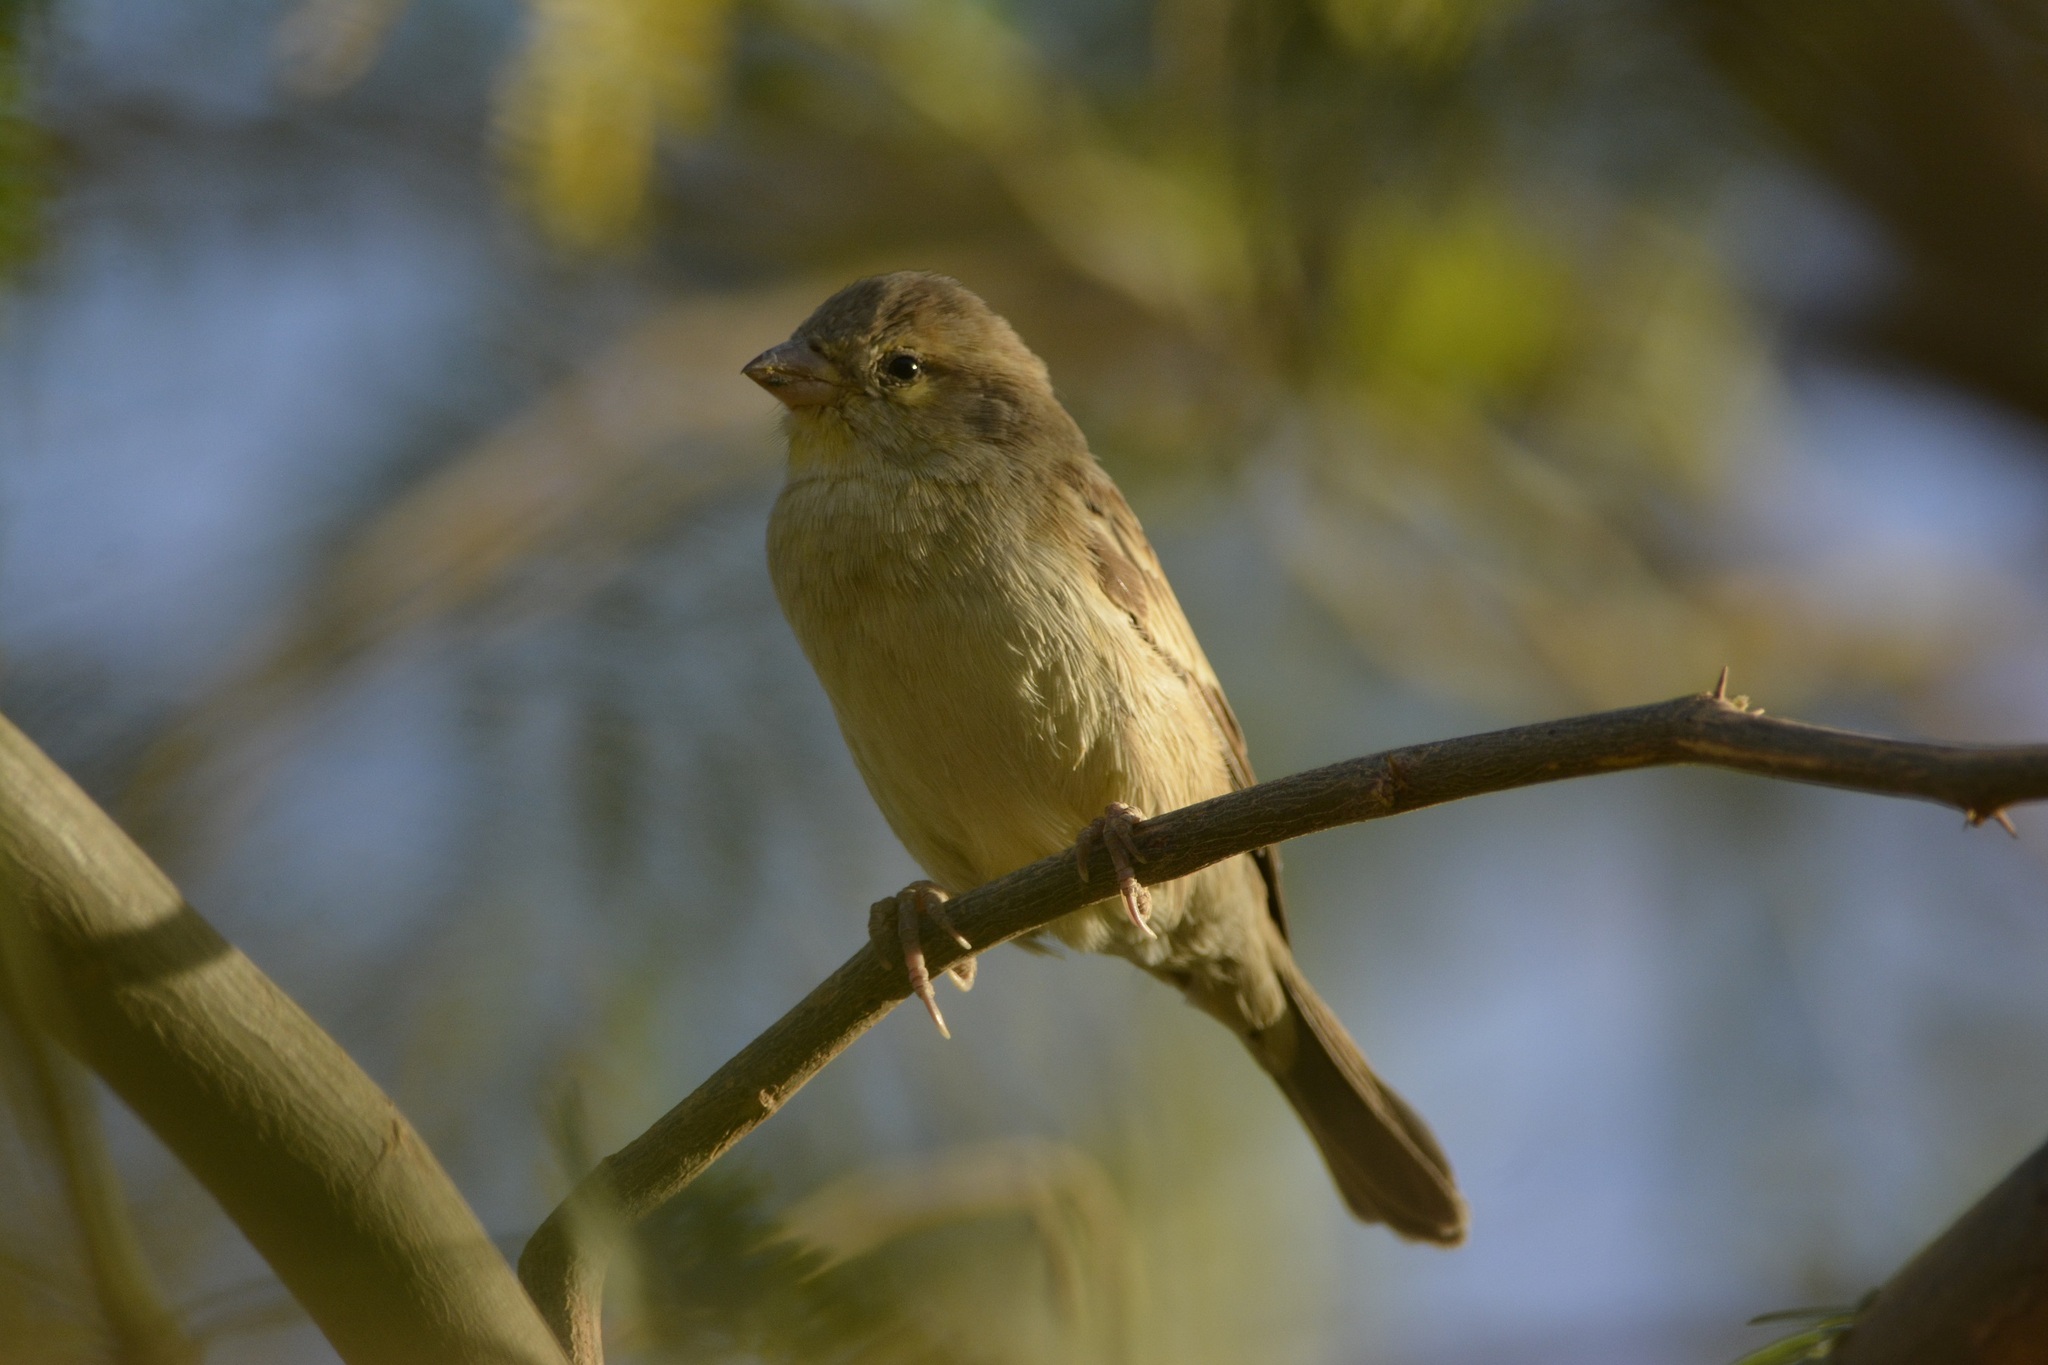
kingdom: Animalia
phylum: Chordata
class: Aves
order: Passeriformes
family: Passeridae
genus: Passer
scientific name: Passer domesticus
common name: House sparrow
